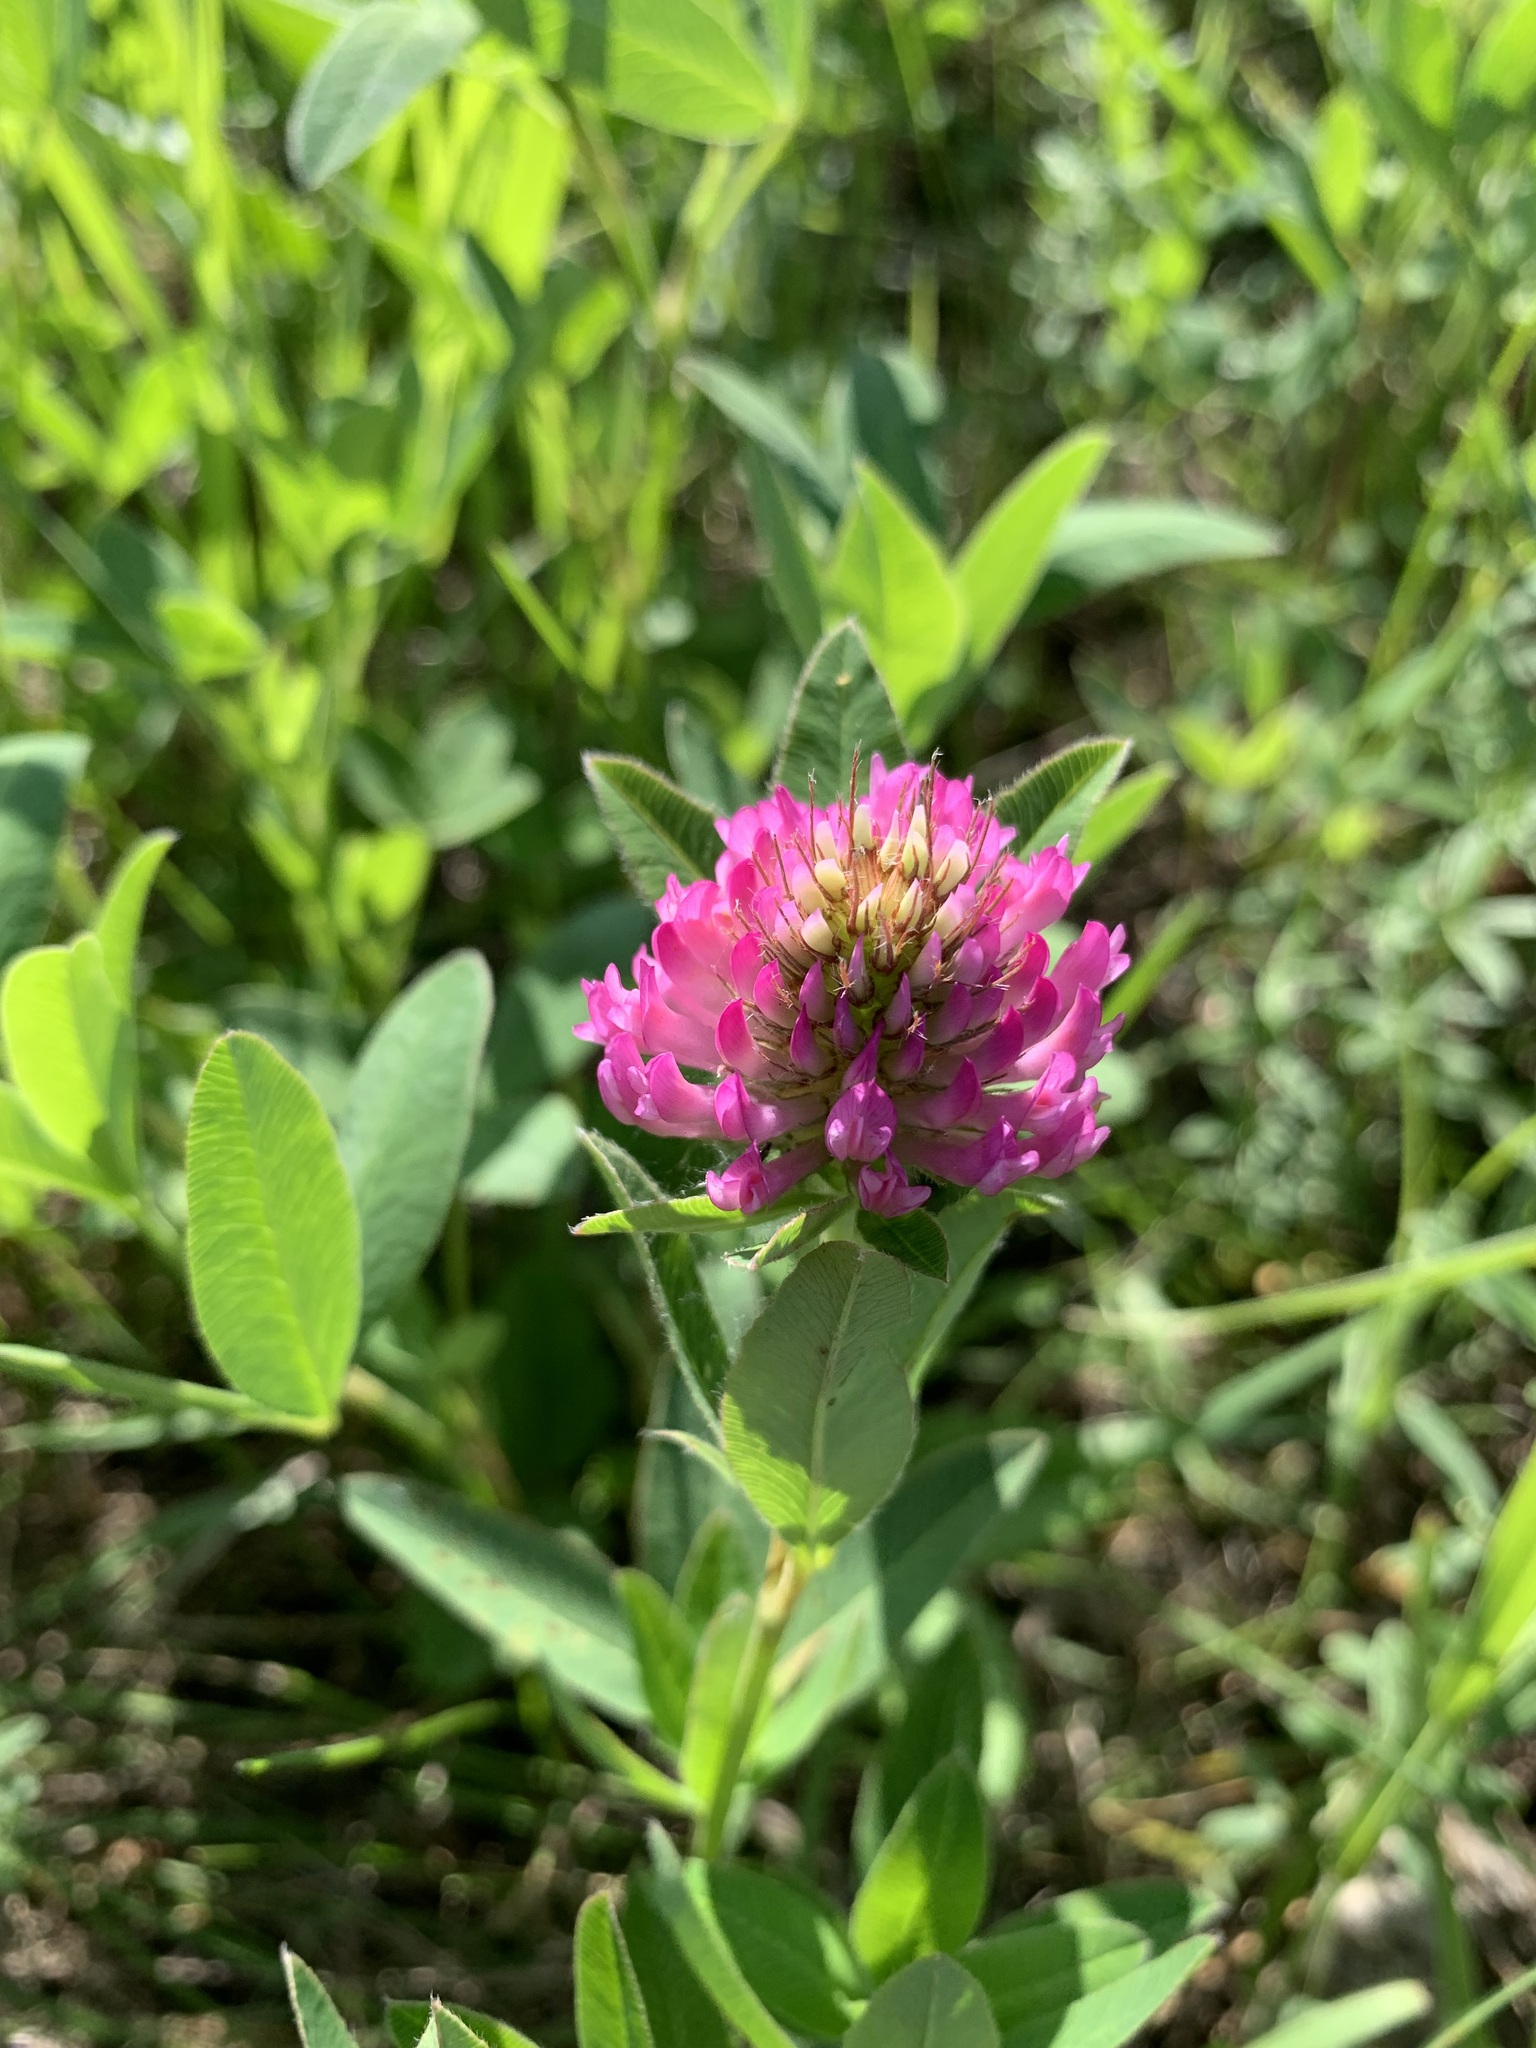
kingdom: Plantae
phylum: Tracheophyta
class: Magnoliopsida
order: Fabales
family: Fabaceae
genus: Trifolium
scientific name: Trifolium medium
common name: Zigzag clover
